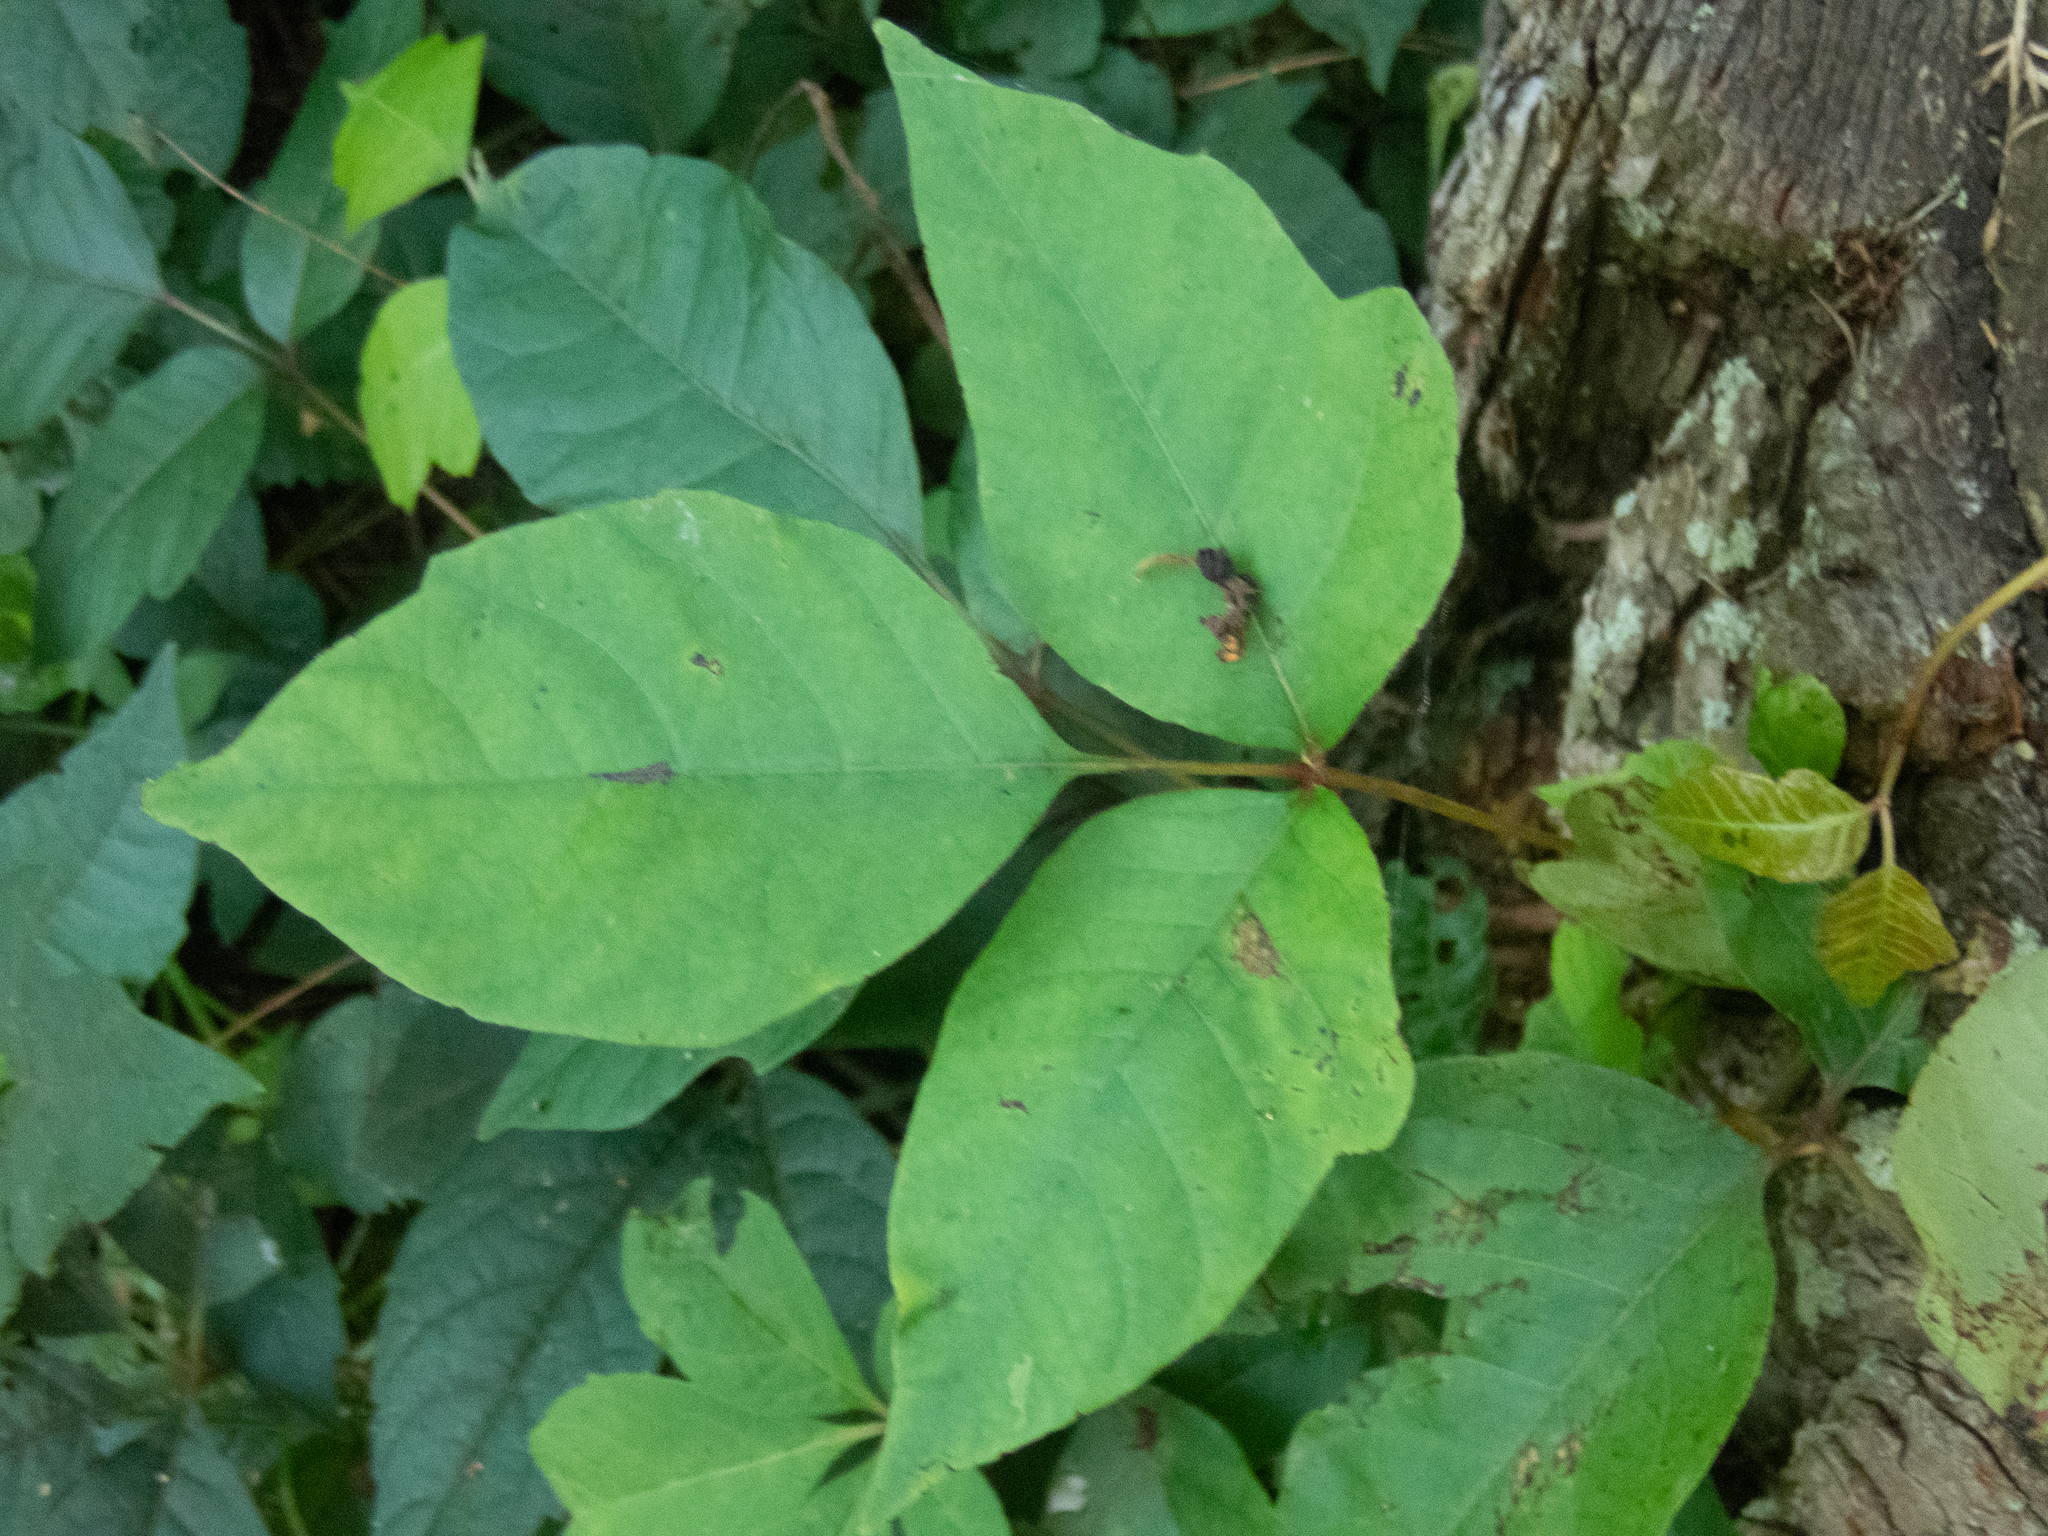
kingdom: Plantae
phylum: Tracheophyta
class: Magnoliopsida
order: Sapindales
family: Anacardiaceae
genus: Toxicodendron
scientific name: Toxicodendron radicans
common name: Poison ivy
